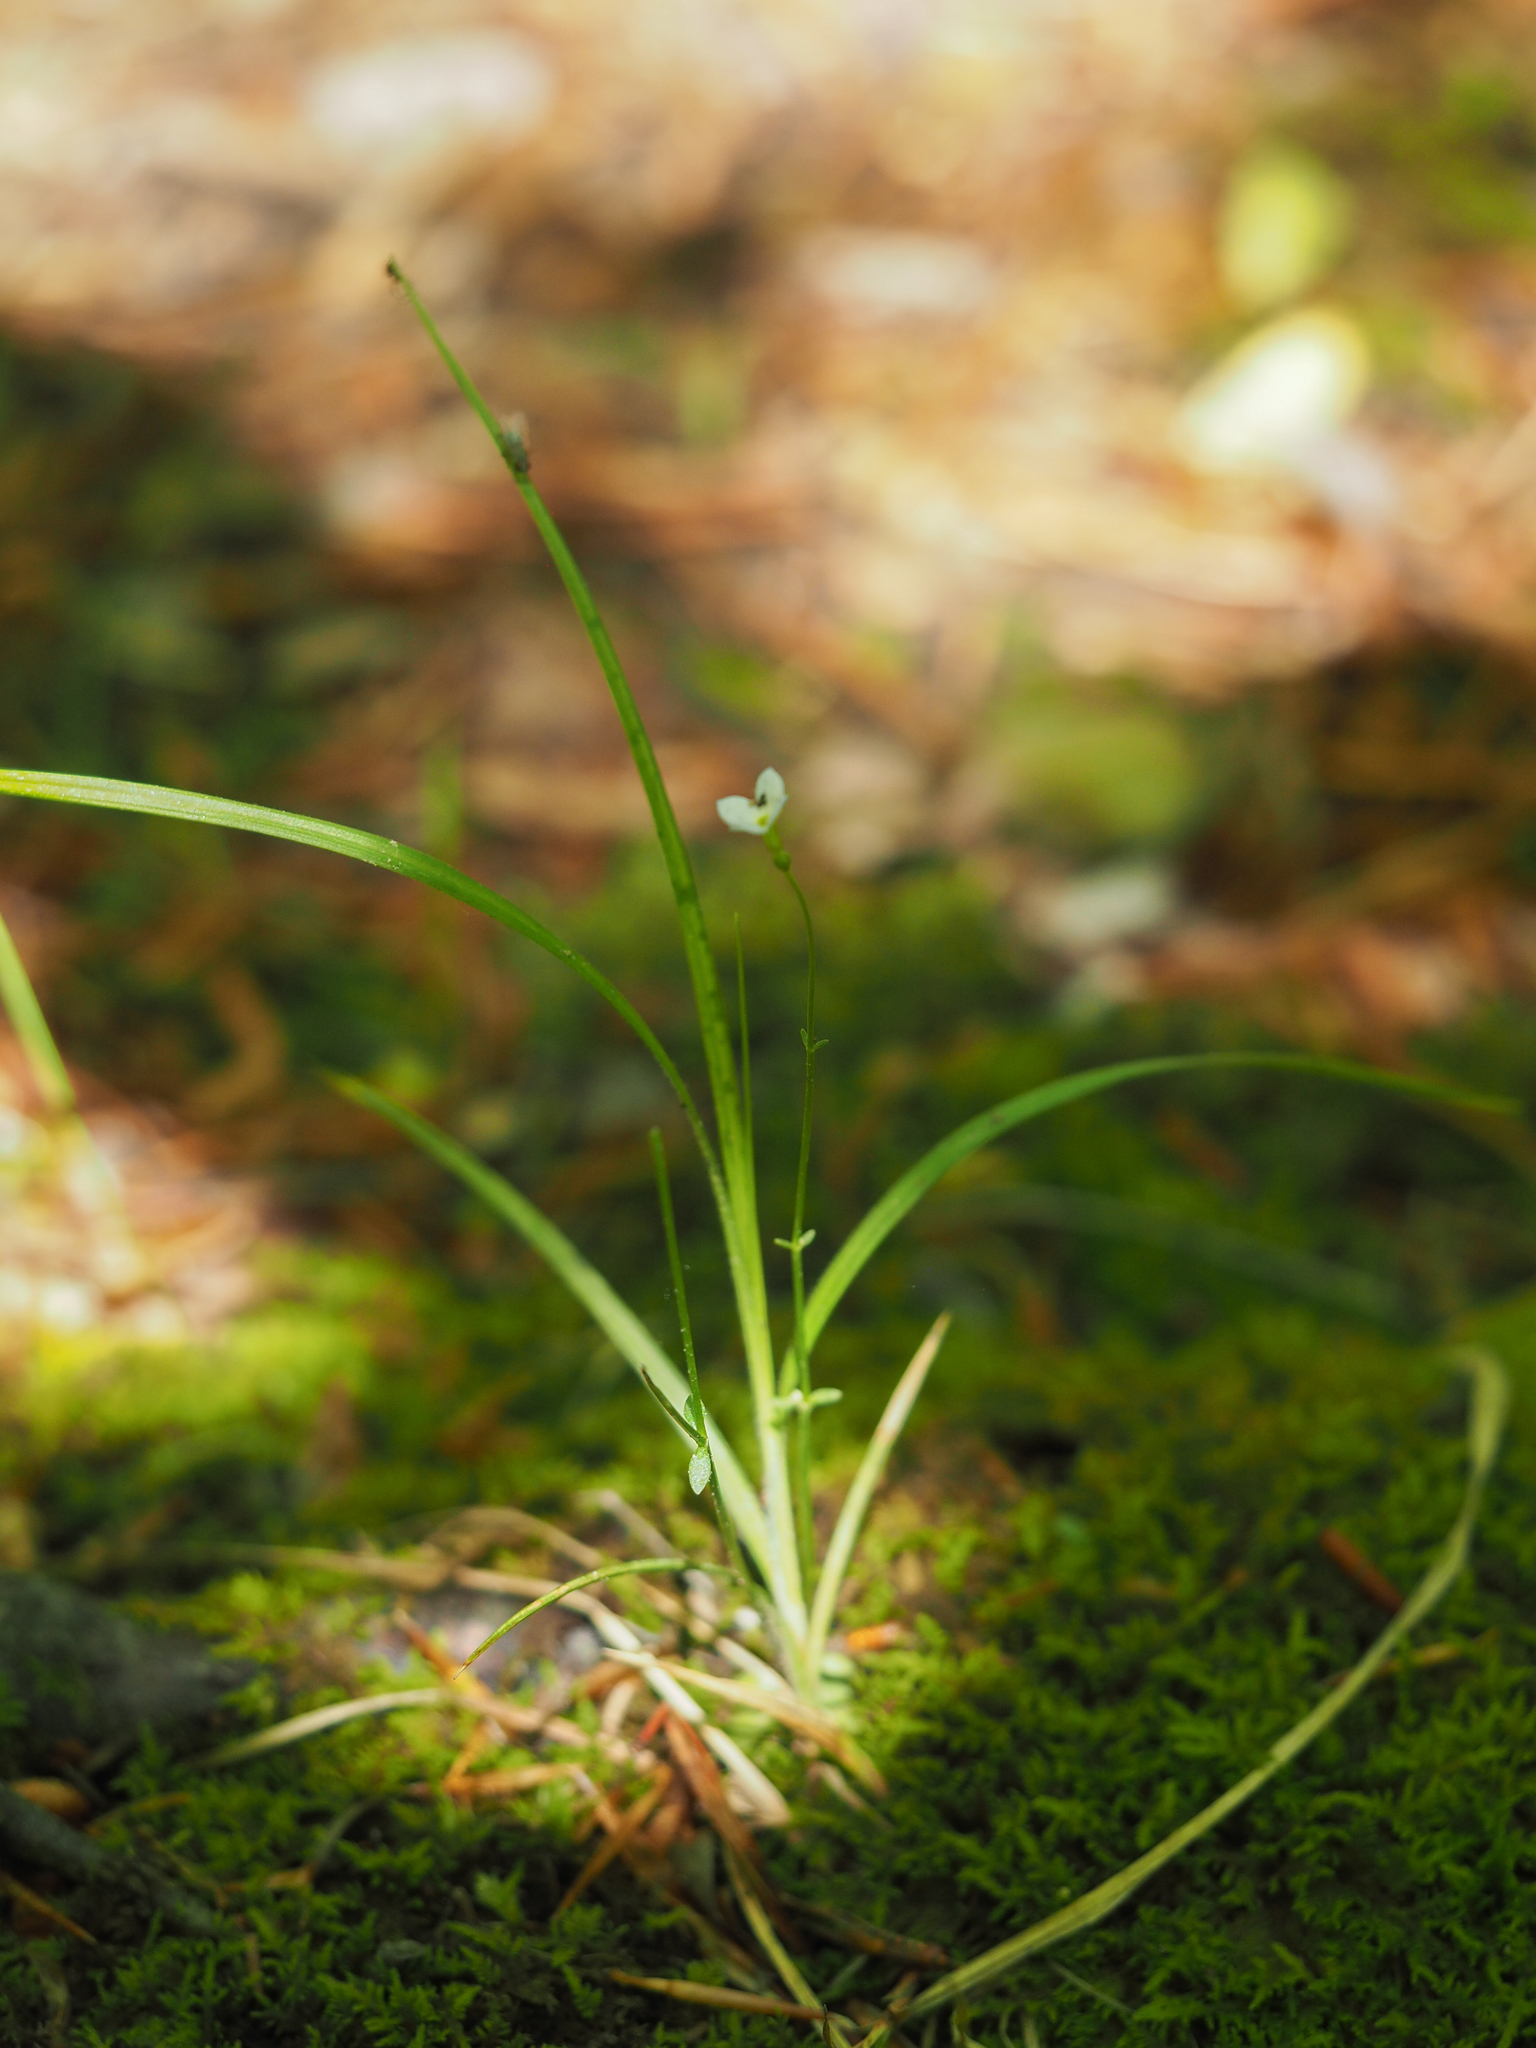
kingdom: Plantae
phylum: Tracheophyta
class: Magnoliopsida
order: Gentianales
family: Rubiaceae
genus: Houstonia
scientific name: Houstonia caerulea
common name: Bluets
